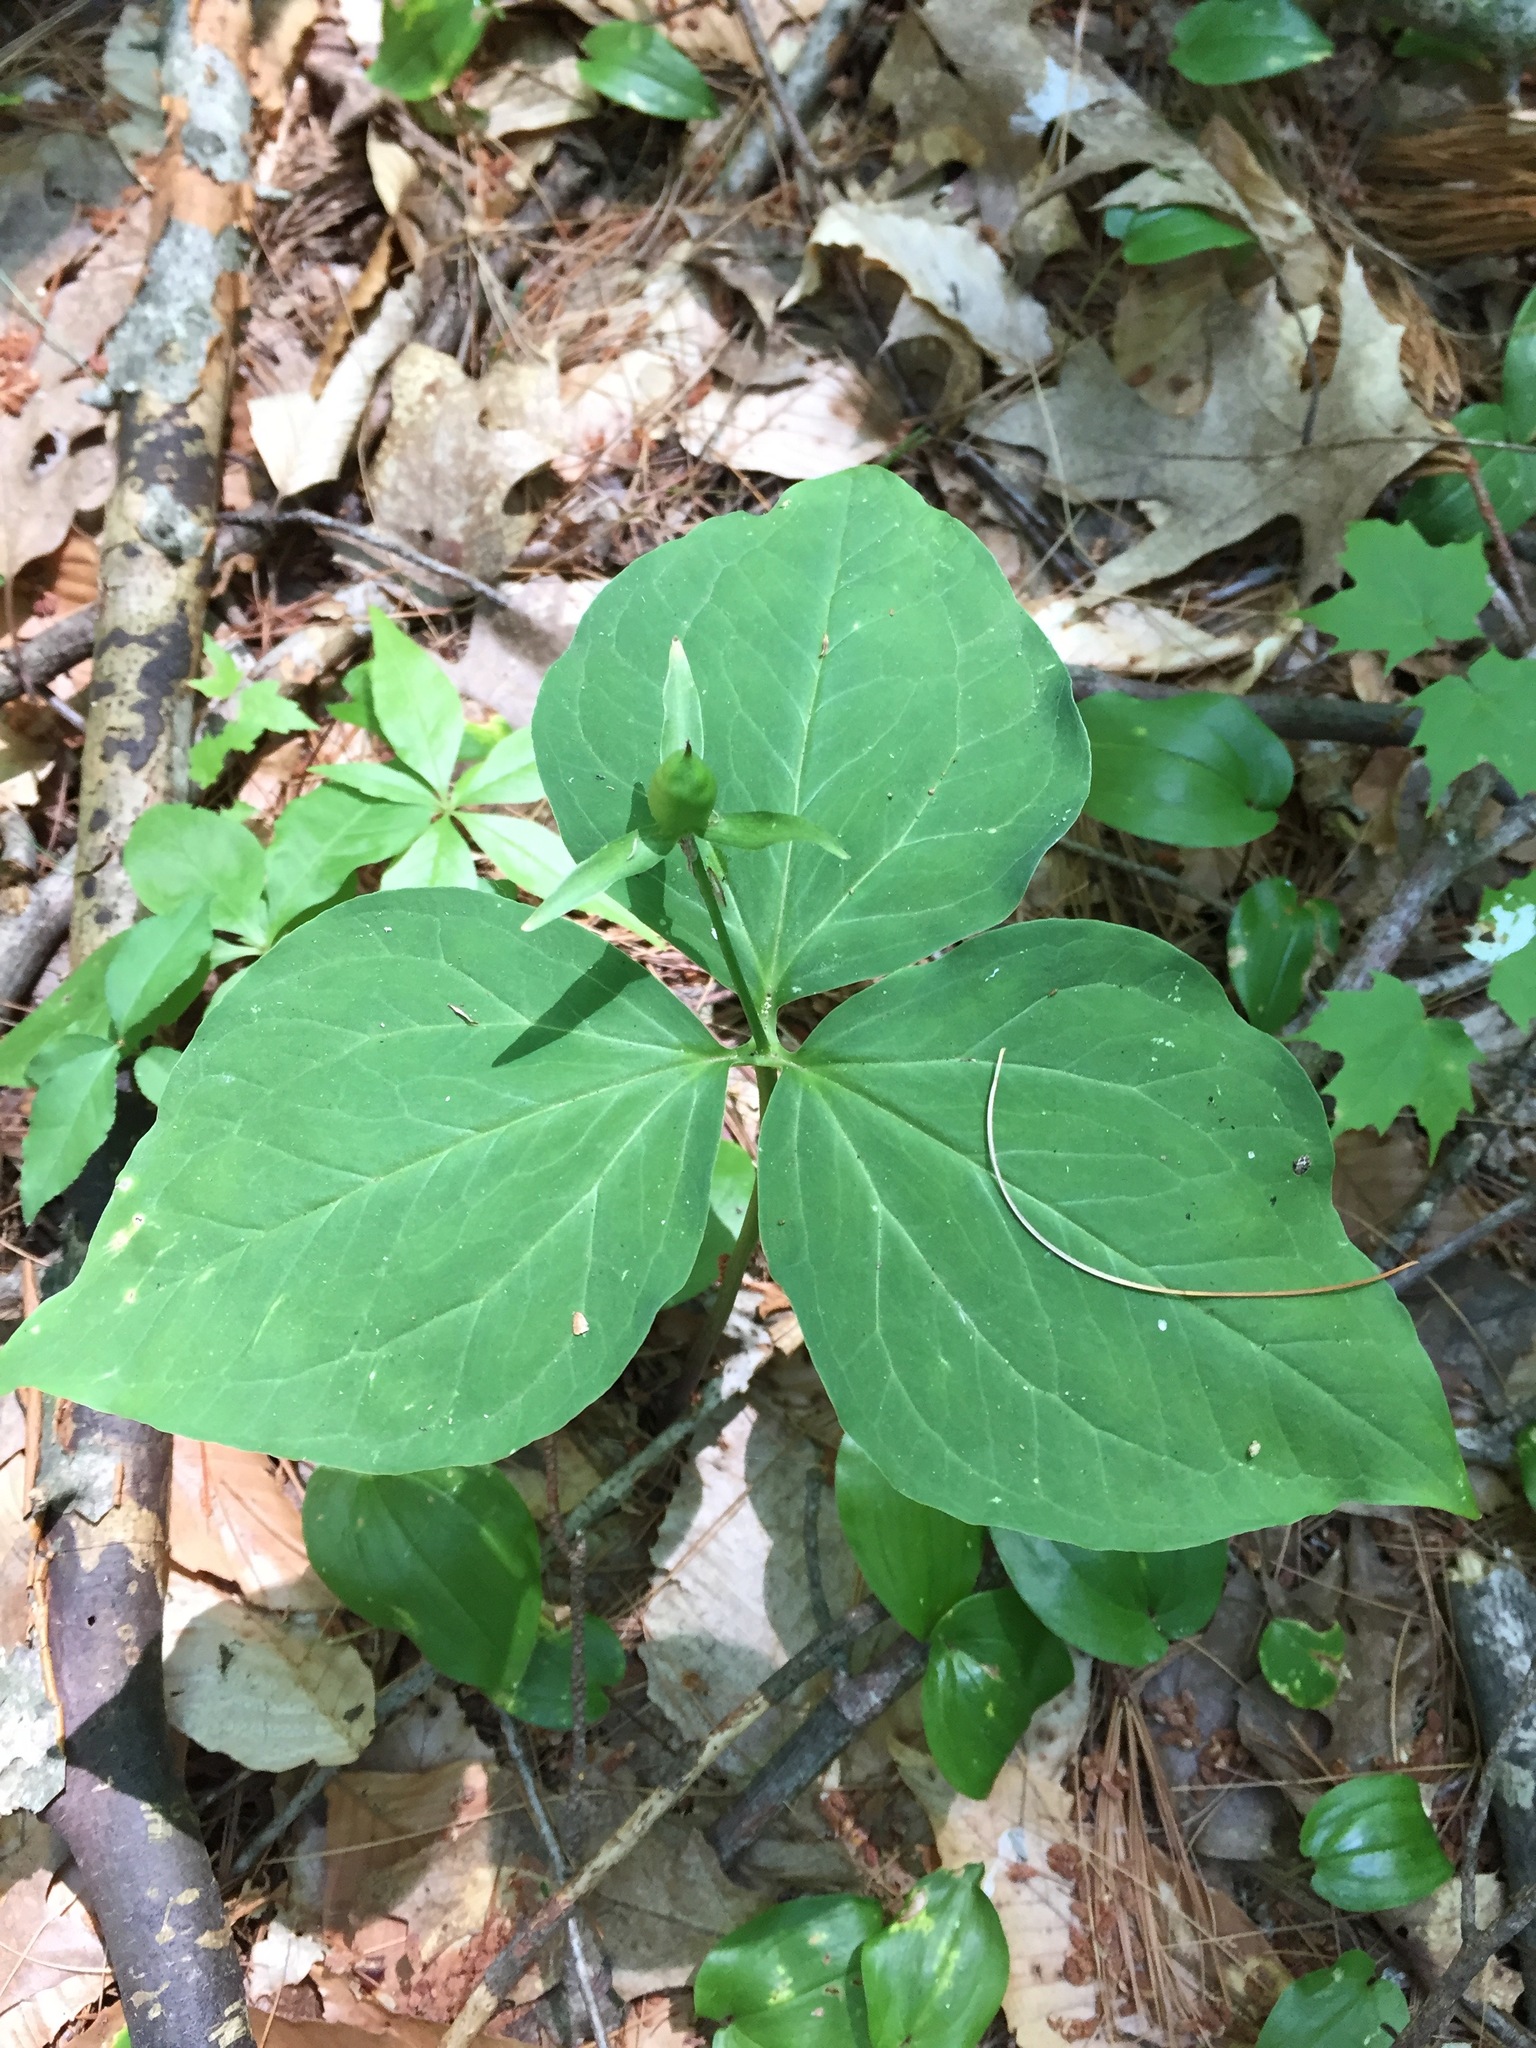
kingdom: Plantae
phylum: Tracheophyta
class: Liliopsida
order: Liliales
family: Melanthiaceae
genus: Trillium
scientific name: Trillium undulatum
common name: Paint trillium
